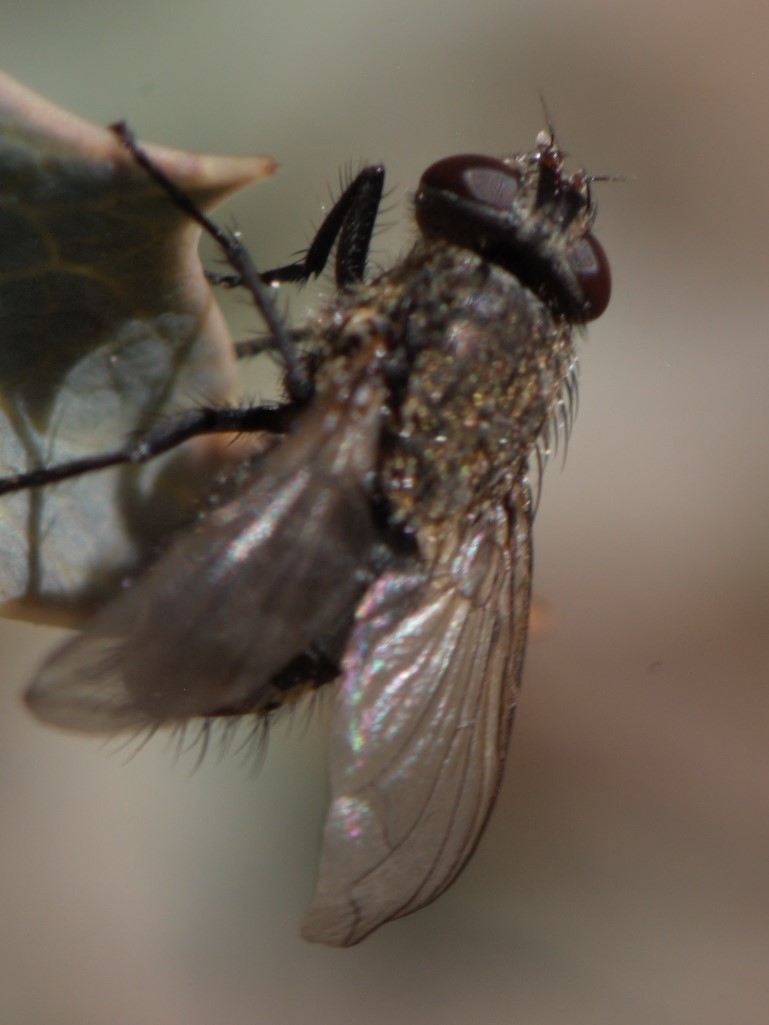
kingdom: Animalia
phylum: Arthropoda
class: Insecta
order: Diptera
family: Polleniidae
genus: Pollenia
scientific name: Pollenia
